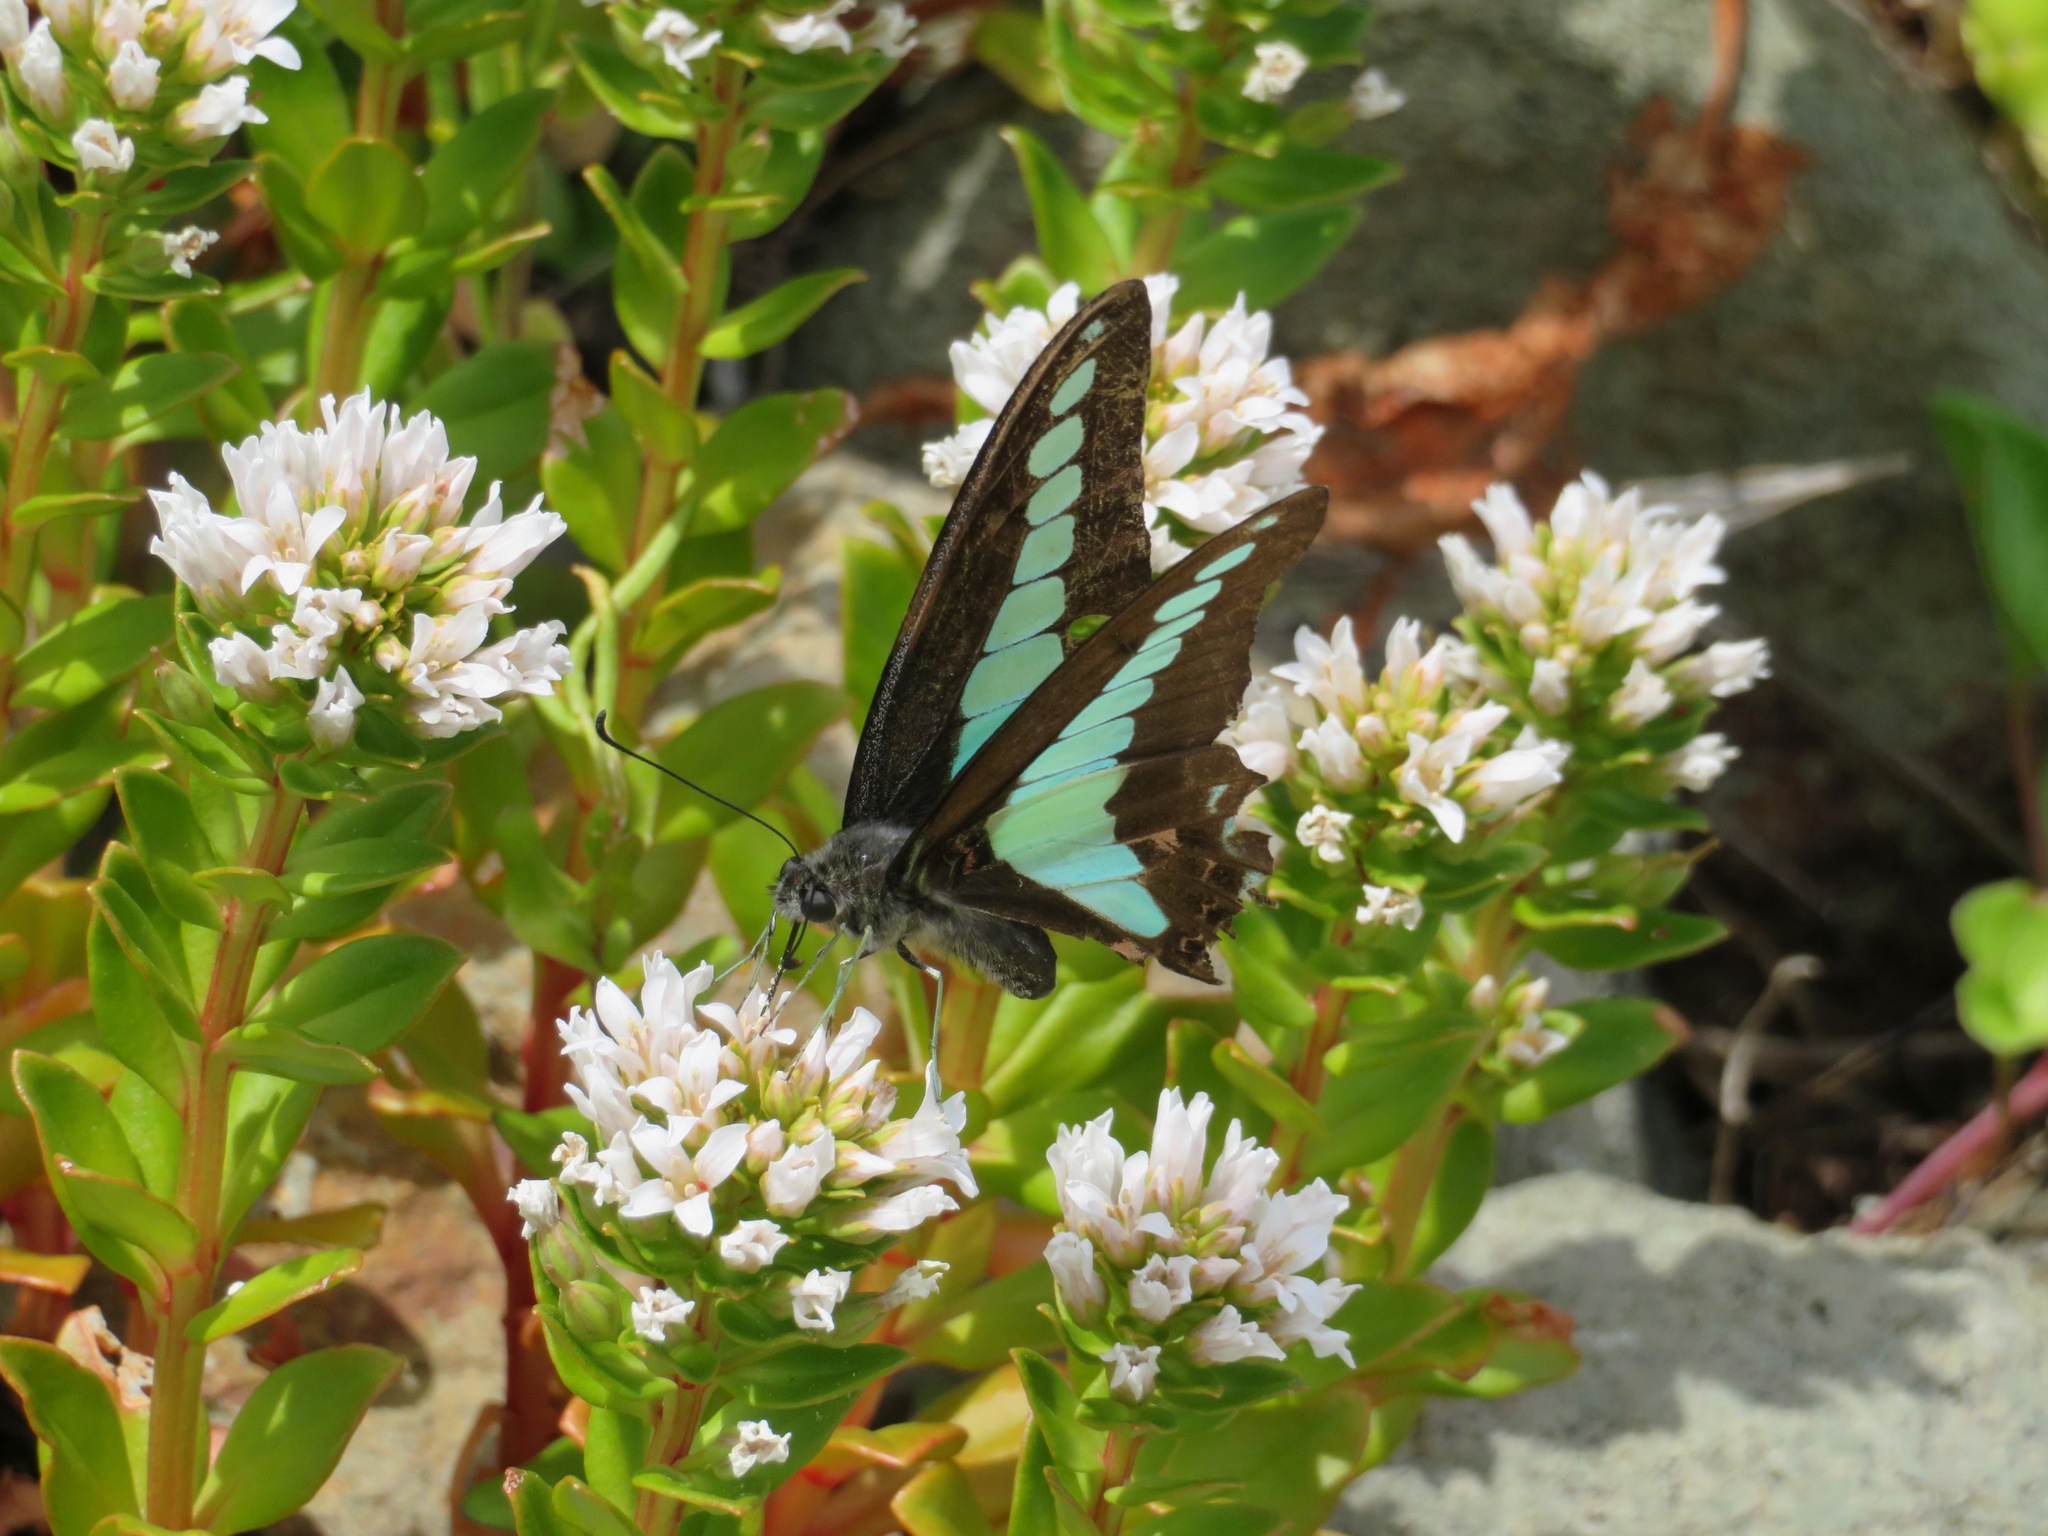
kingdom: Fungi
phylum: Ascomycota
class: Sordariomycetes
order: Microascales
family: Microascaceae
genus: Graphium
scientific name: Graphium sarpedon
